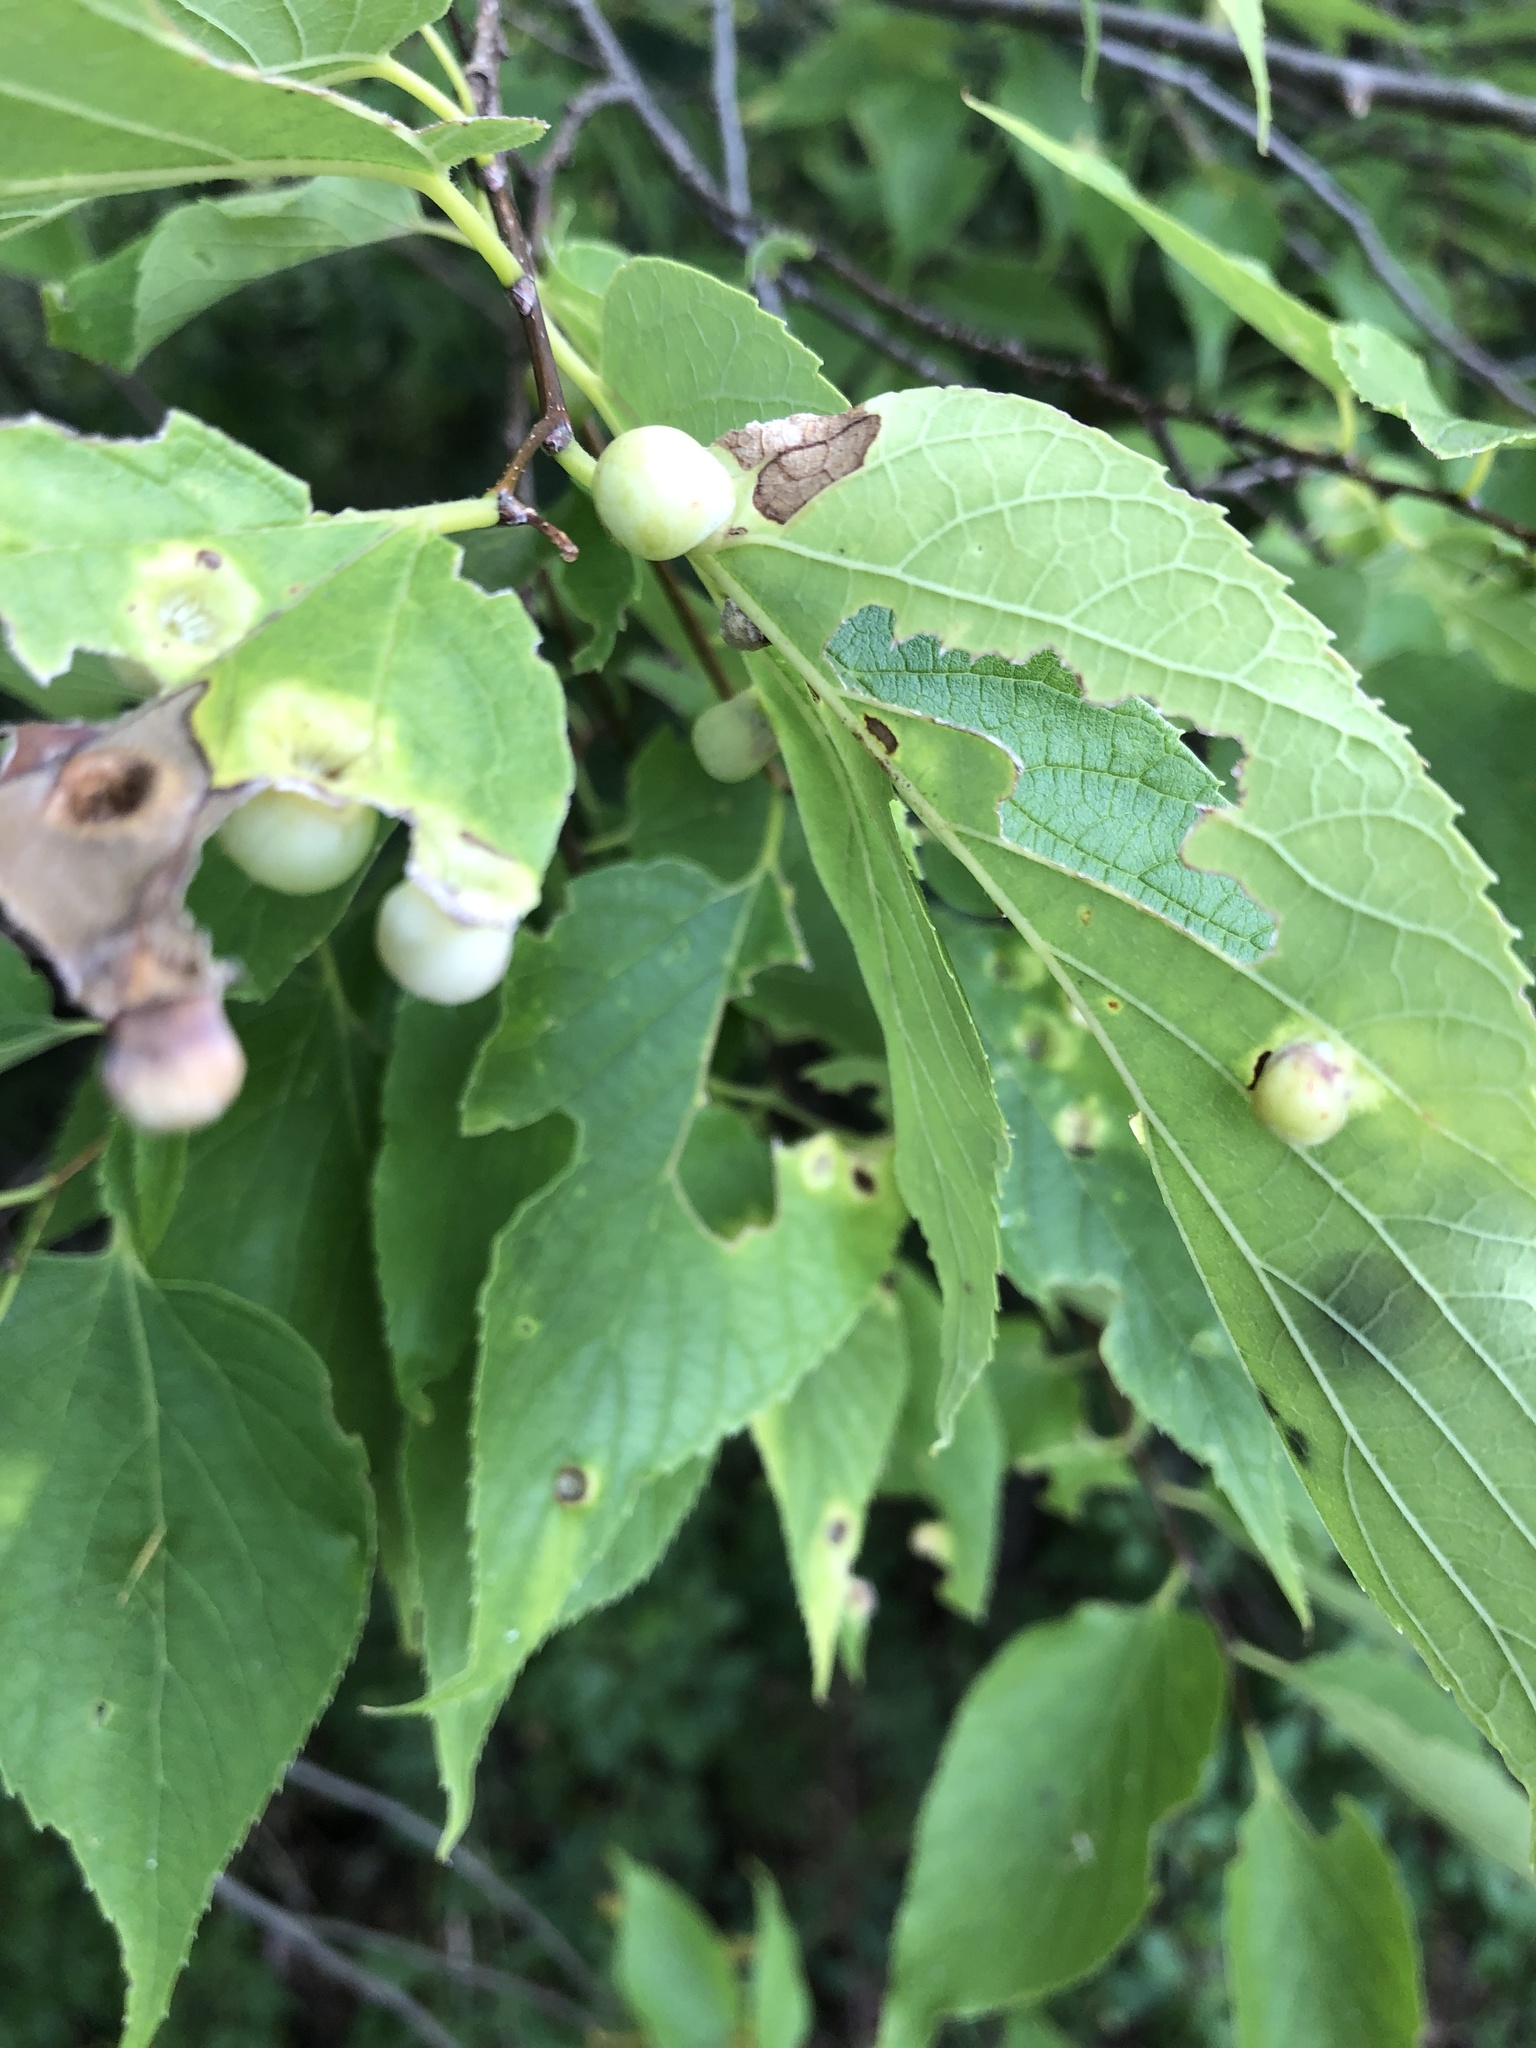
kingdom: Animalia
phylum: Arthropoda
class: Insecta
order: Hemiptera
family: Aphalaridae
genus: Pachypsylla
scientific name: Pachypsylla celtidismamma
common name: Hackberry nipplegall psyllid
